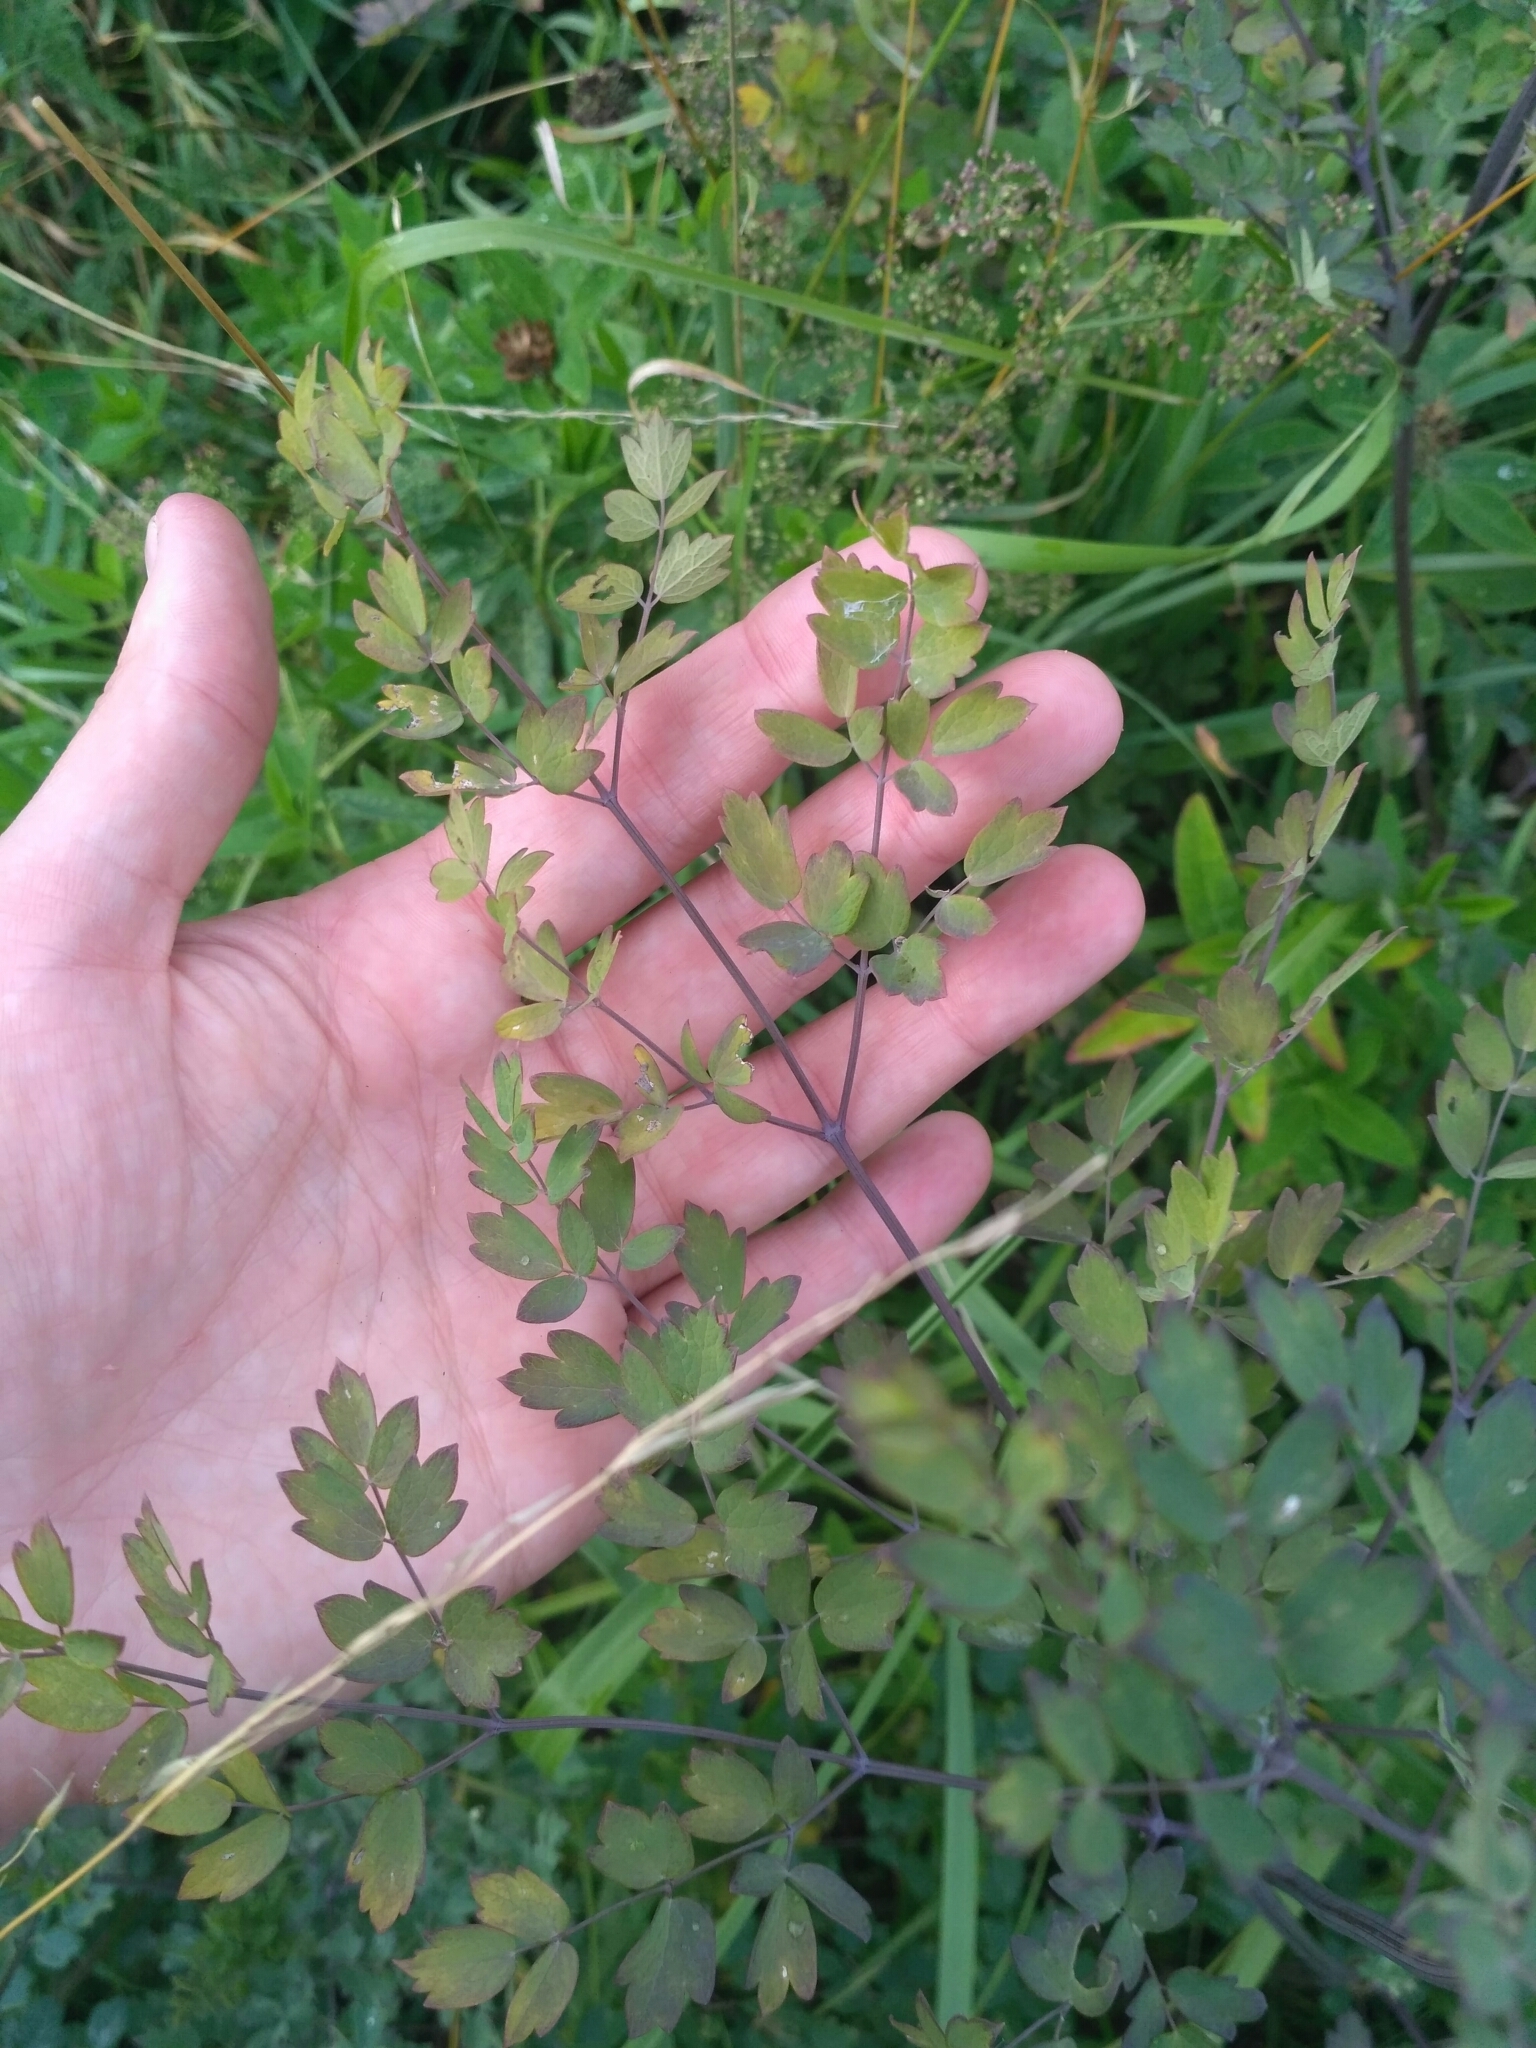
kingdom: Plantae
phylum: Tracheophyta
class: Magnoliopsida
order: Ranunculales
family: Ranunculaceae
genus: Thalictrum
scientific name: Thalictrum minus
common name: Lesser meadow-rue
